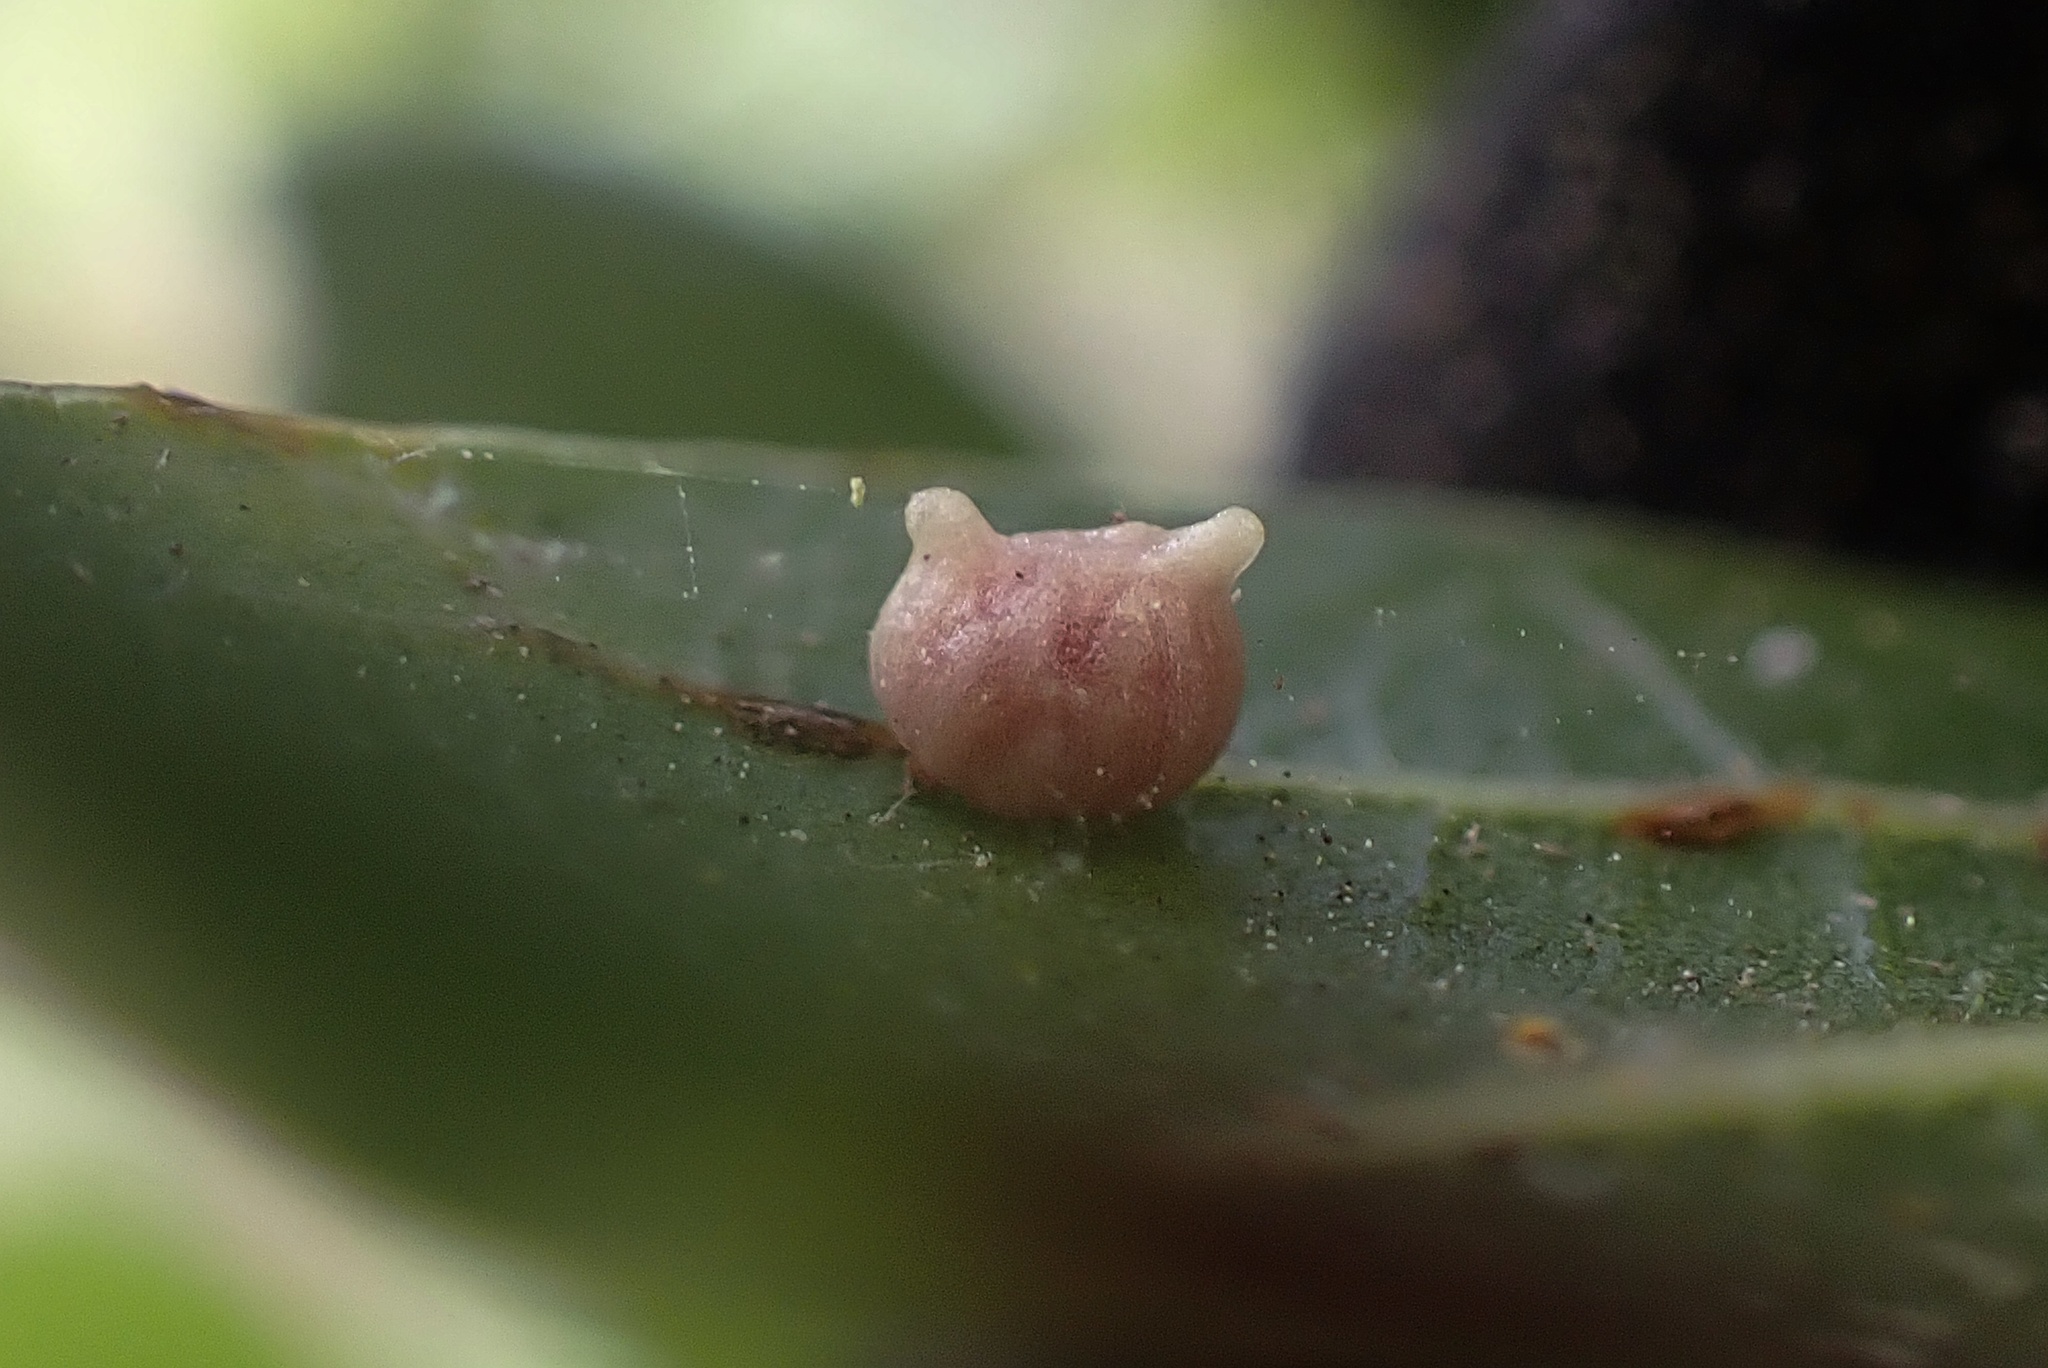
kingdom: Animalia
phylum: Arthropoda
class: Insecta
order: Hymenoptera
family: Cynipidae
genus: Dryocosmus
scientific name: Dryocosmus
